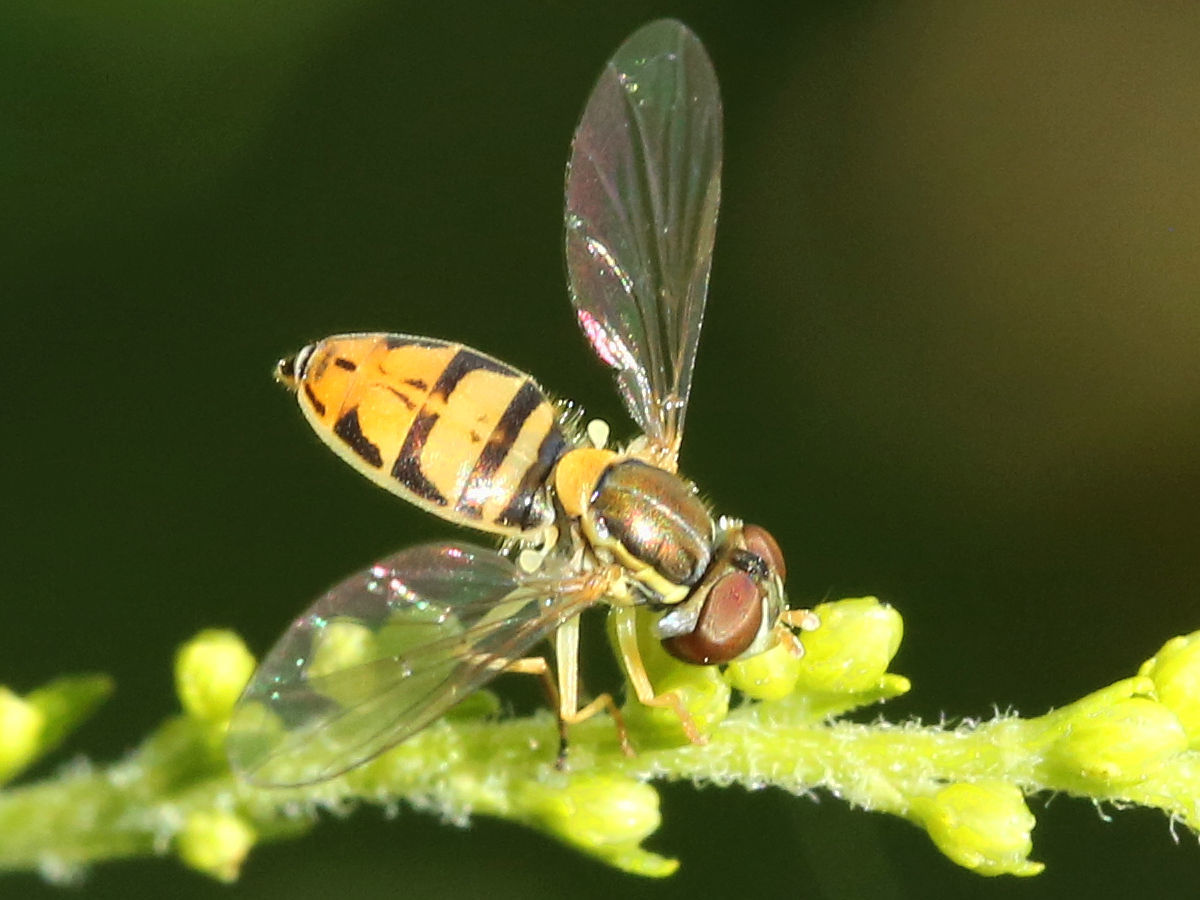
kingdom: Animalia
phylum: Arthropoda
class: Insecta
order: Diptera
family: Syrphidae
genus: Toxomerus
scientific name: Toxomerus marginatus
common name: Syrphid fly
